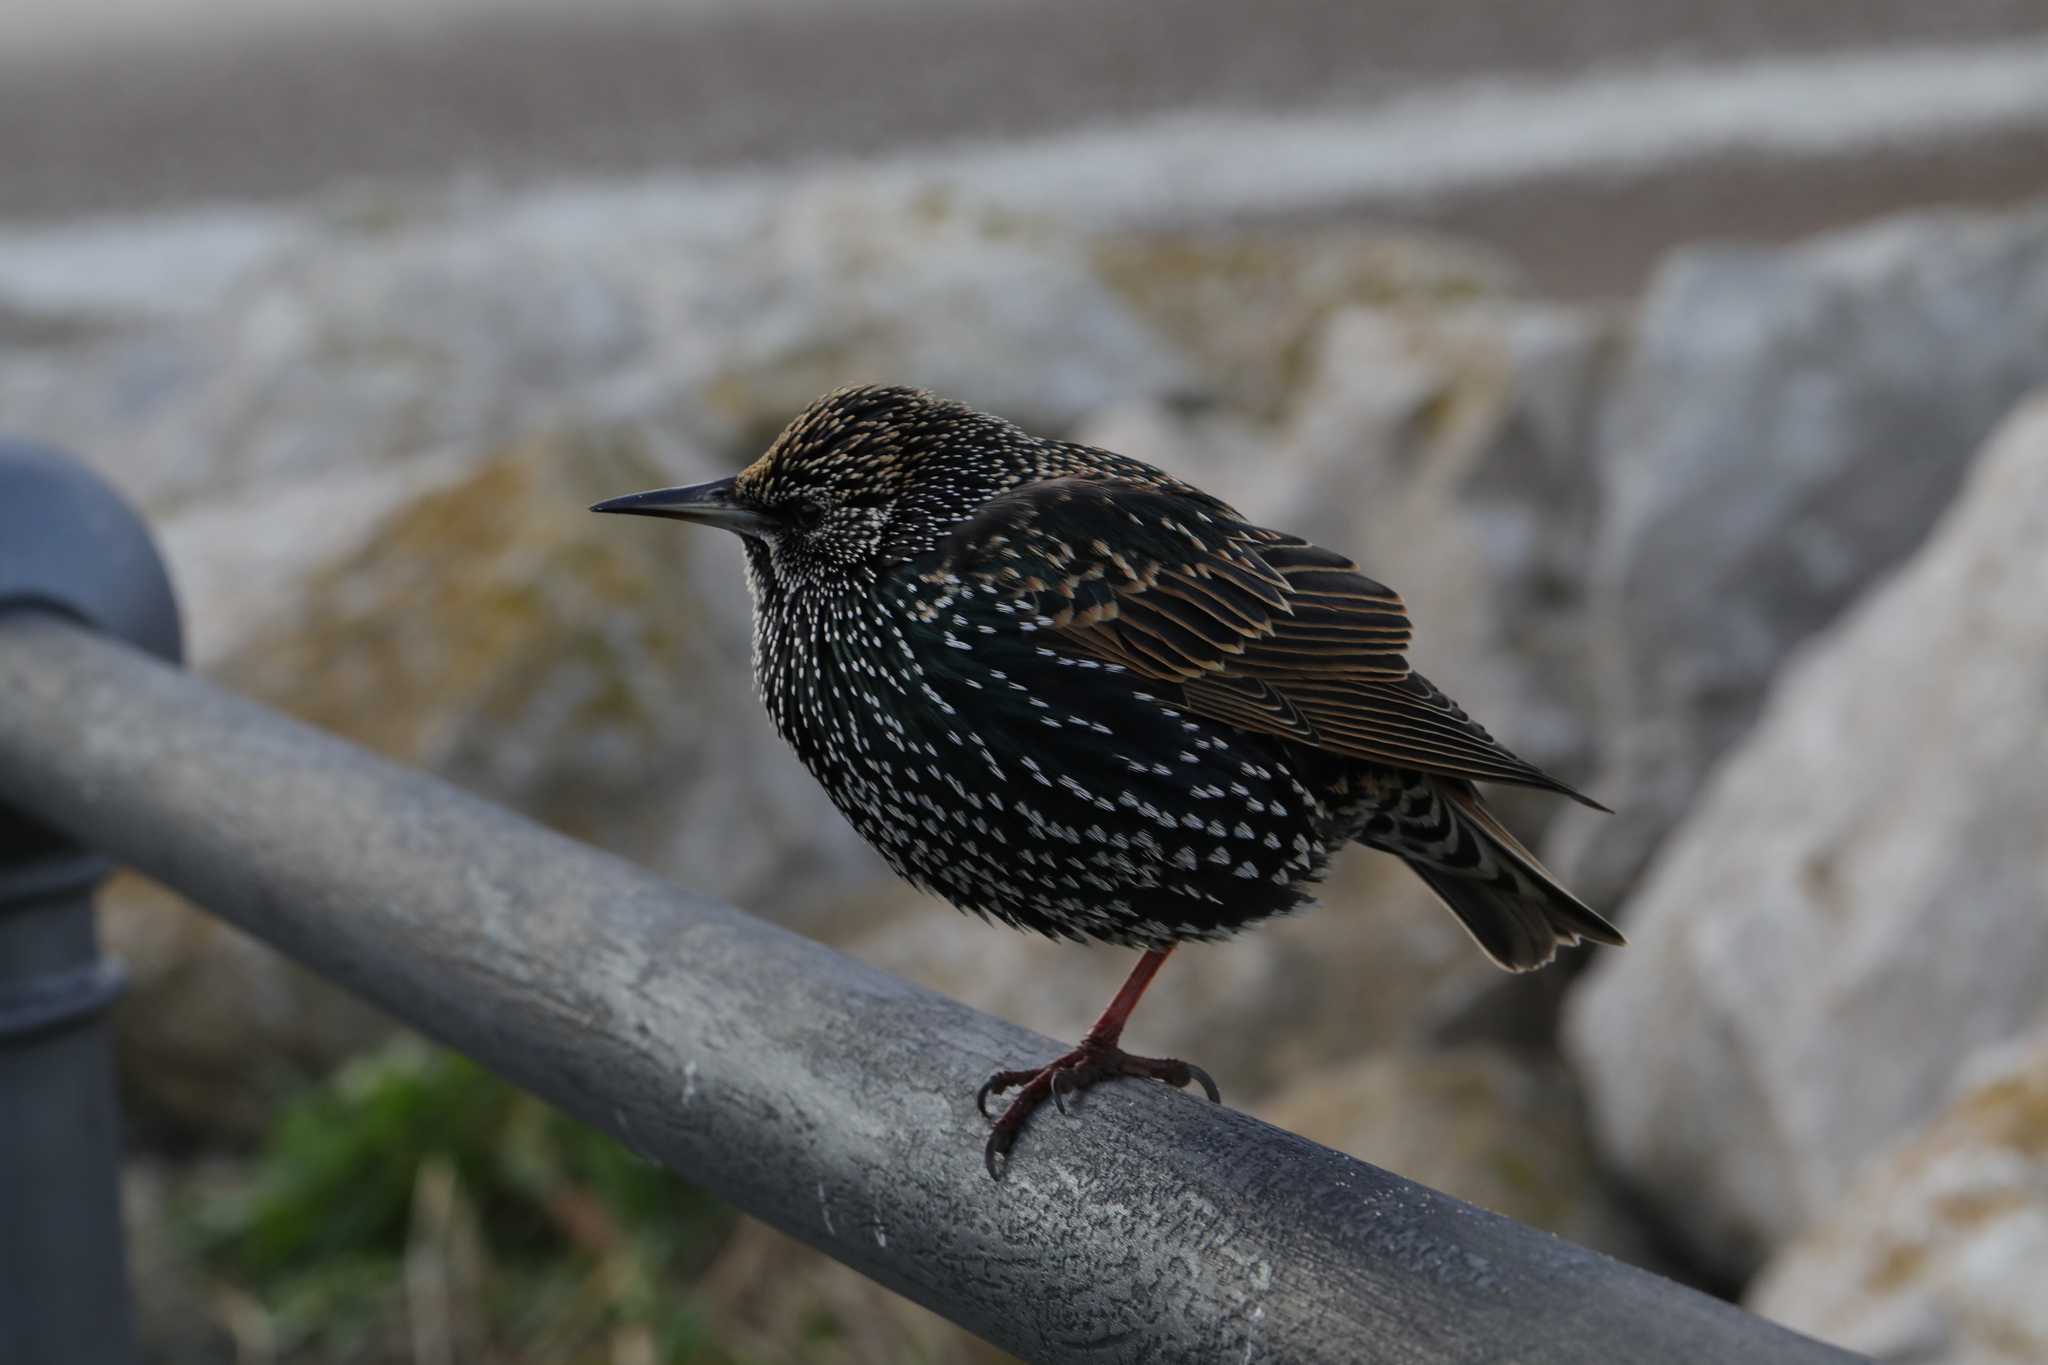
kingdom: Animalia
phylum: Chordata
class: Aves
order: Passeriformes
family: Sturnidae
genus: Sturnus
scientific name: Sturnus vulgaris
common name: Common starling
